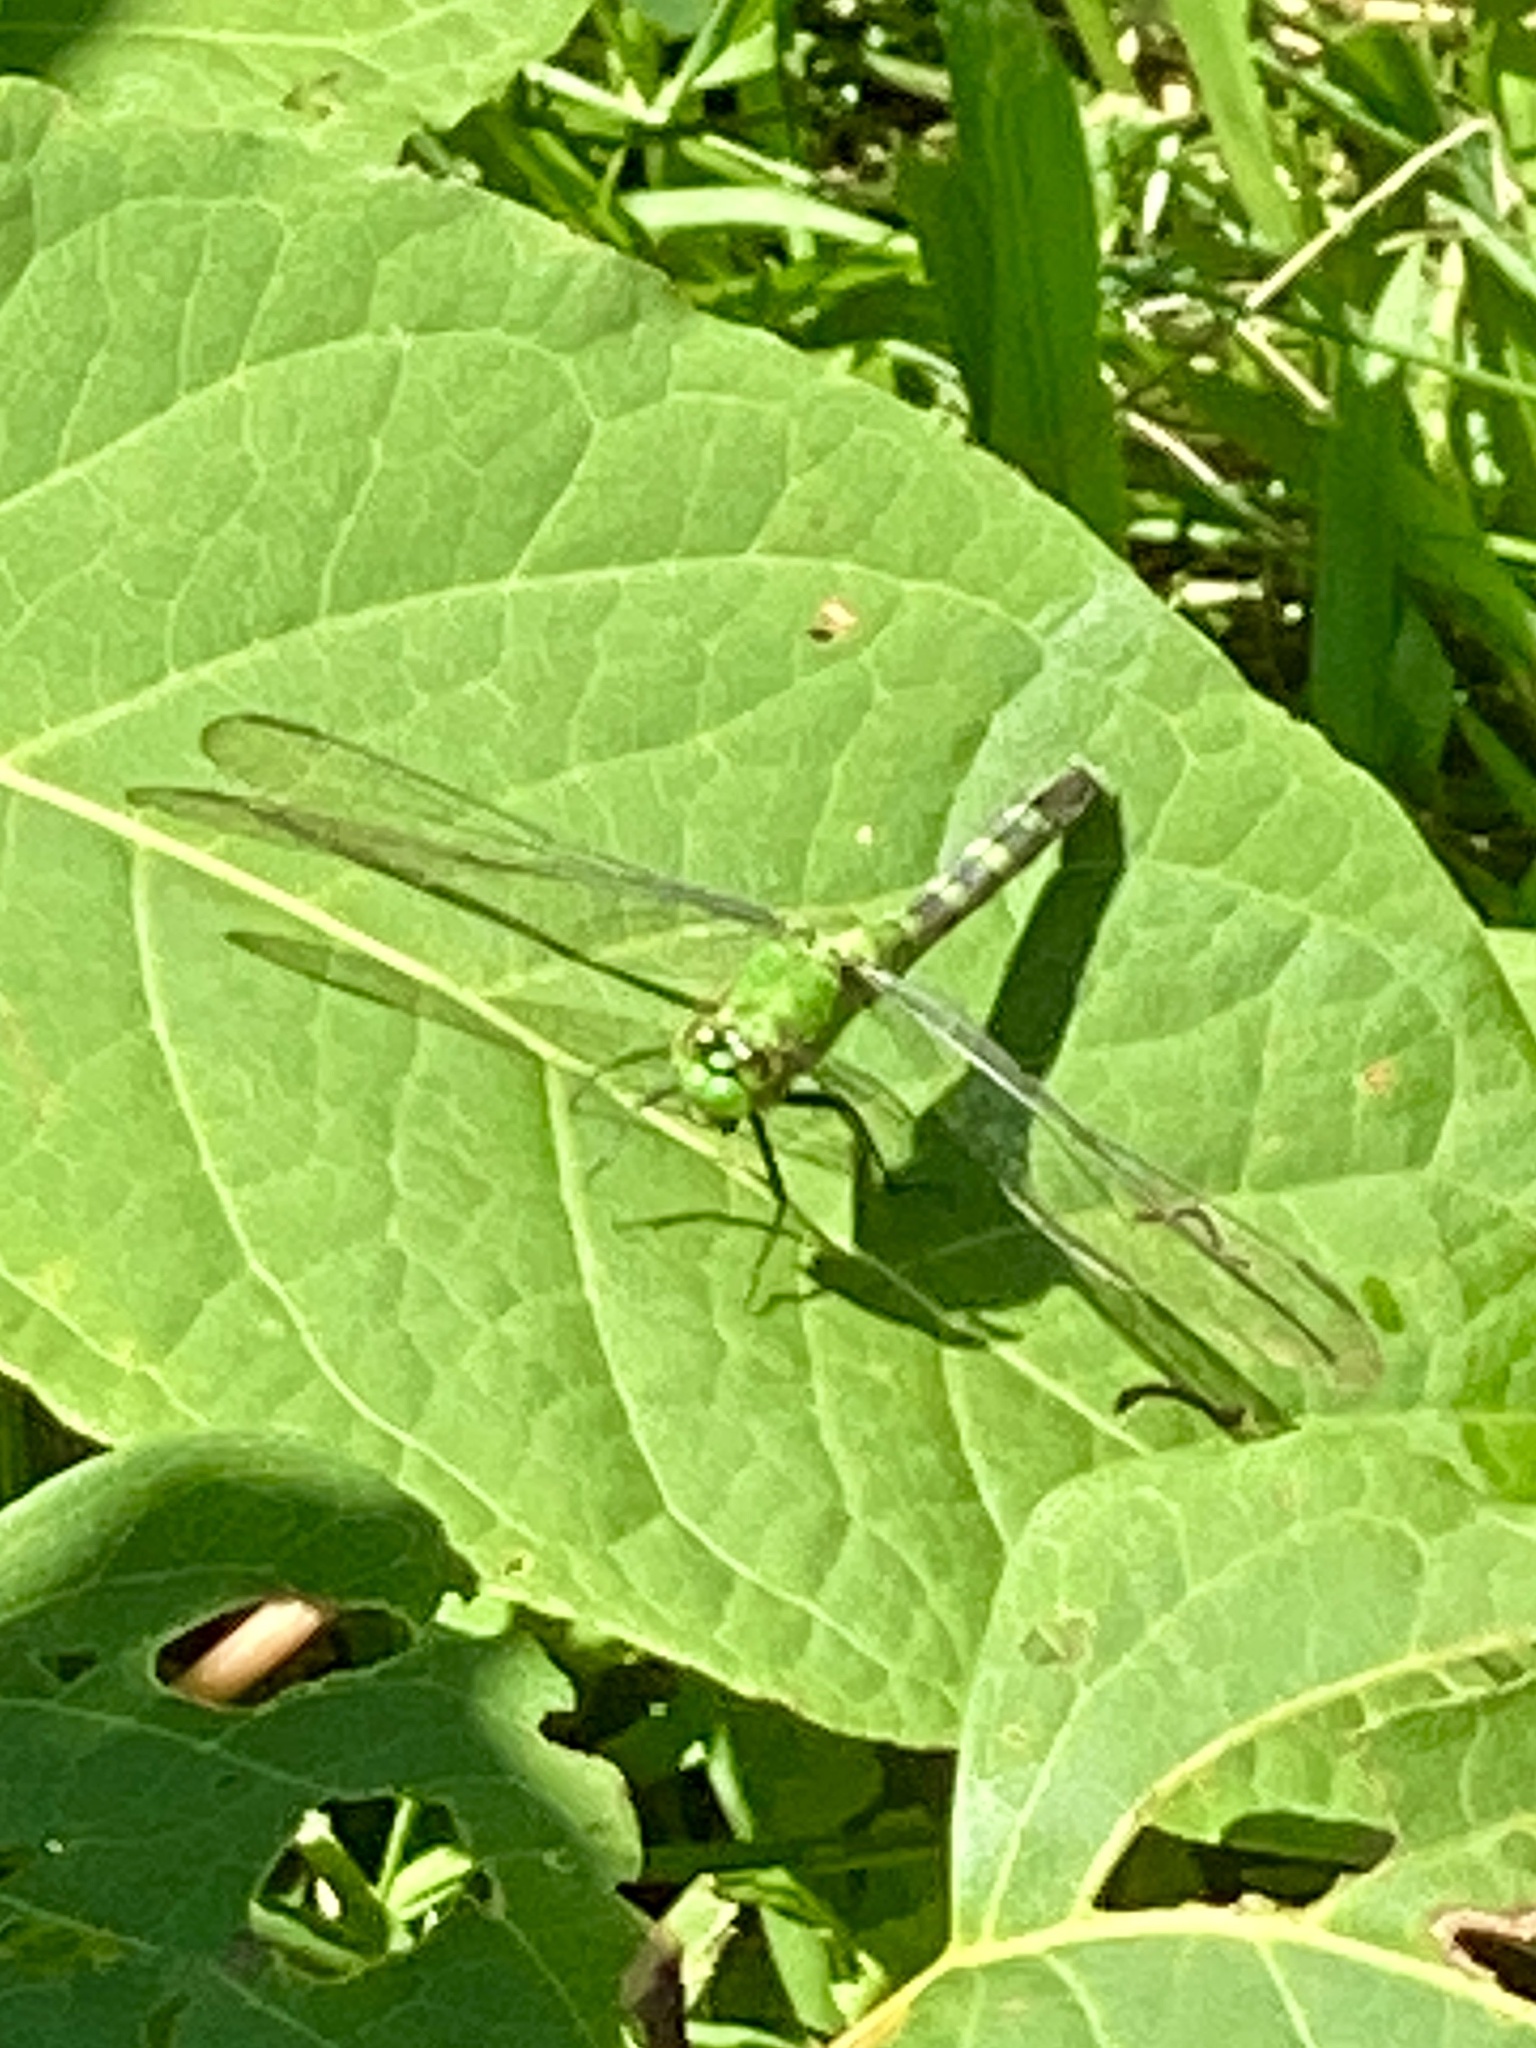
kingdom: Animalia
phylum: Arthropoda
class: Insecta
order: Odonata
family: Libellulidae
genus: Erythemis
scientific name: Erythemis simplicicollis
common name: Eastern pondhawk
